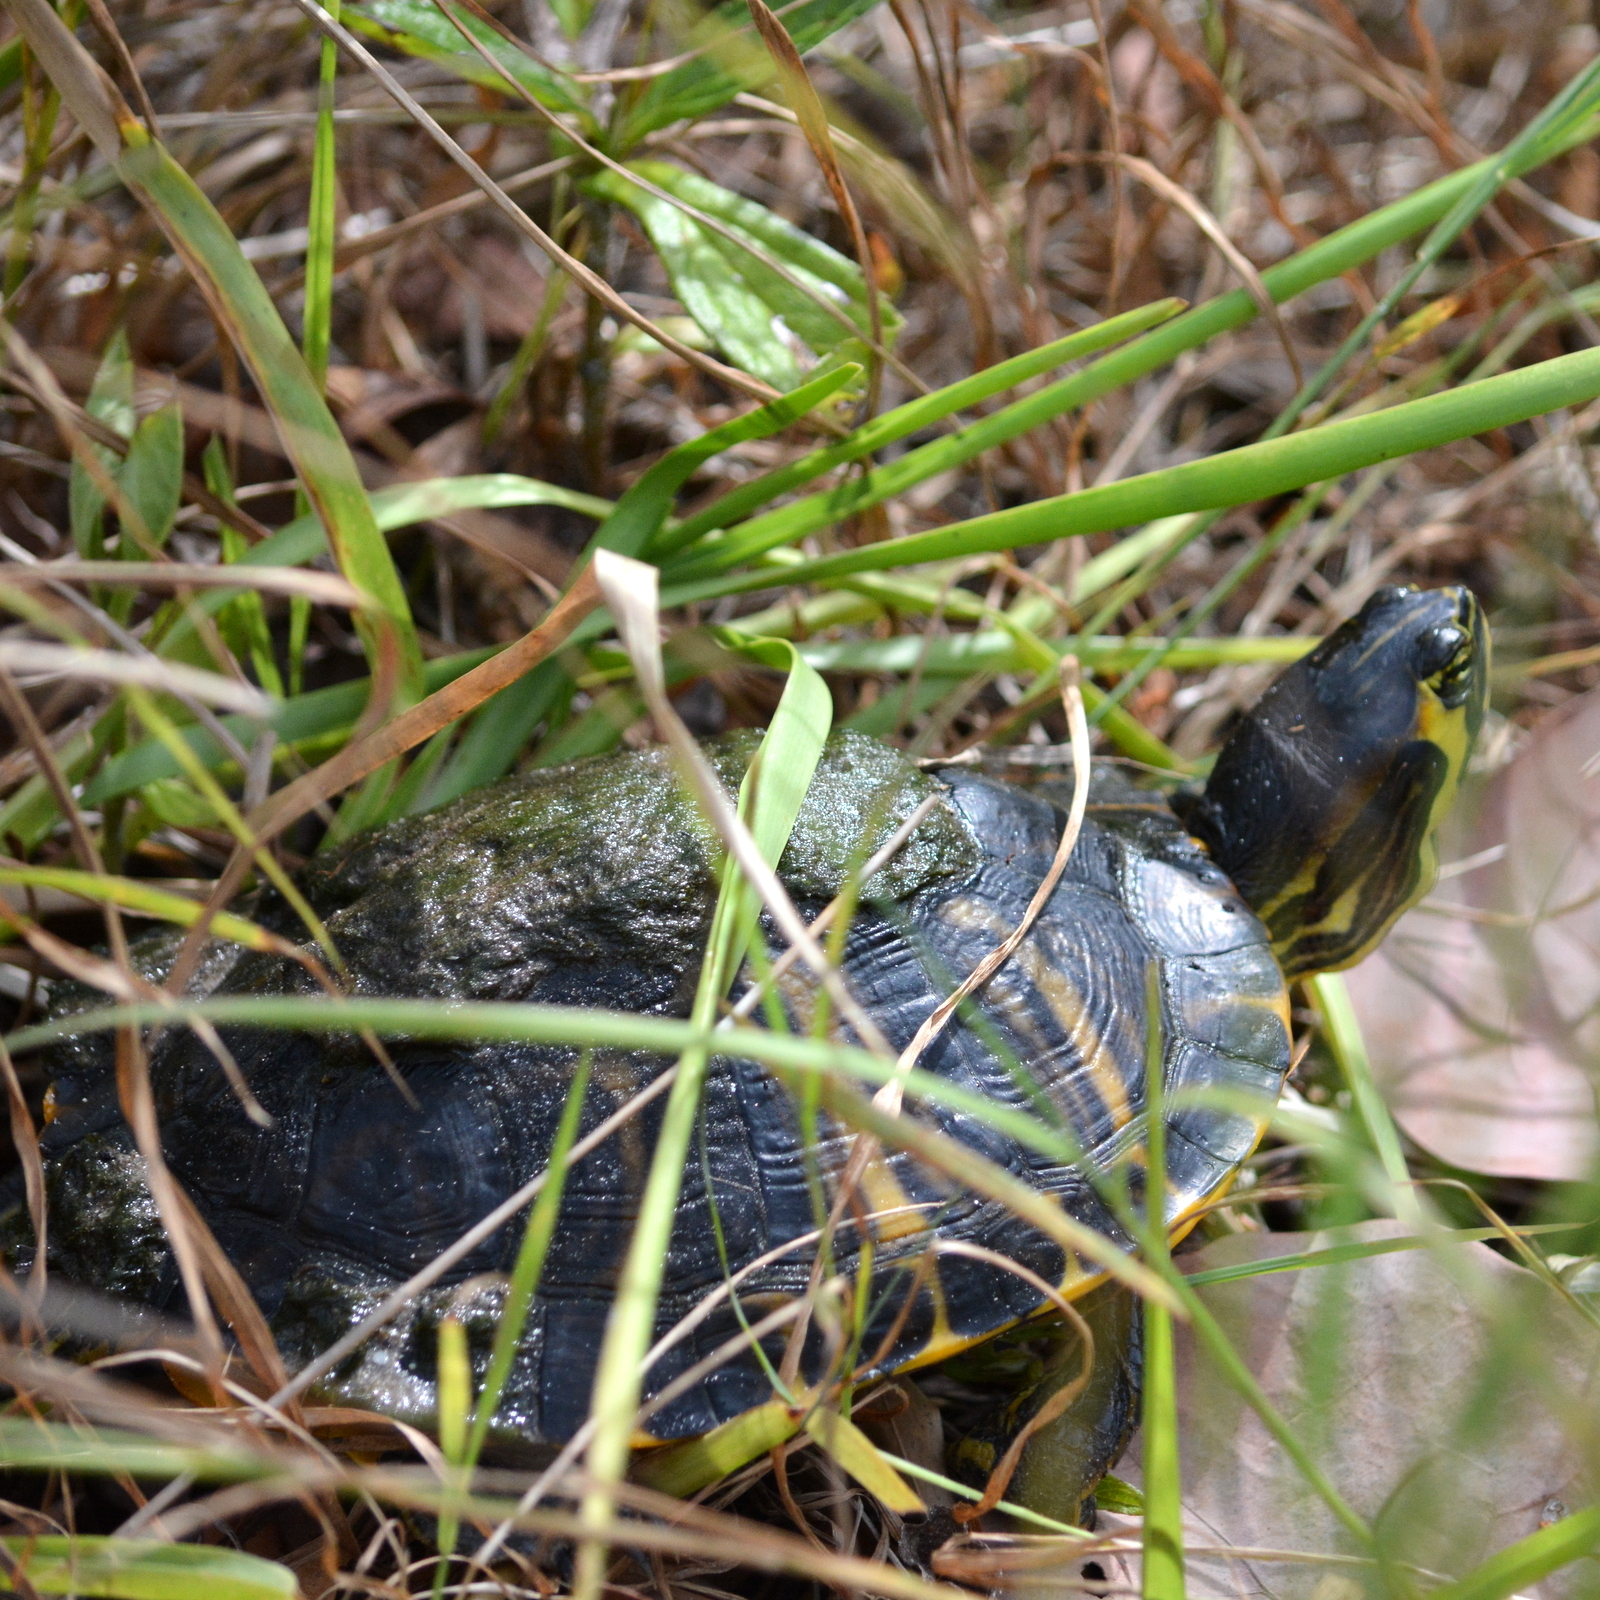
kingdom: Animalia
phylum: Chordata
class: Testudines
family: Emydidae
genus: Trachemys
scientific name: Trachemys scripta
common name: Slider
